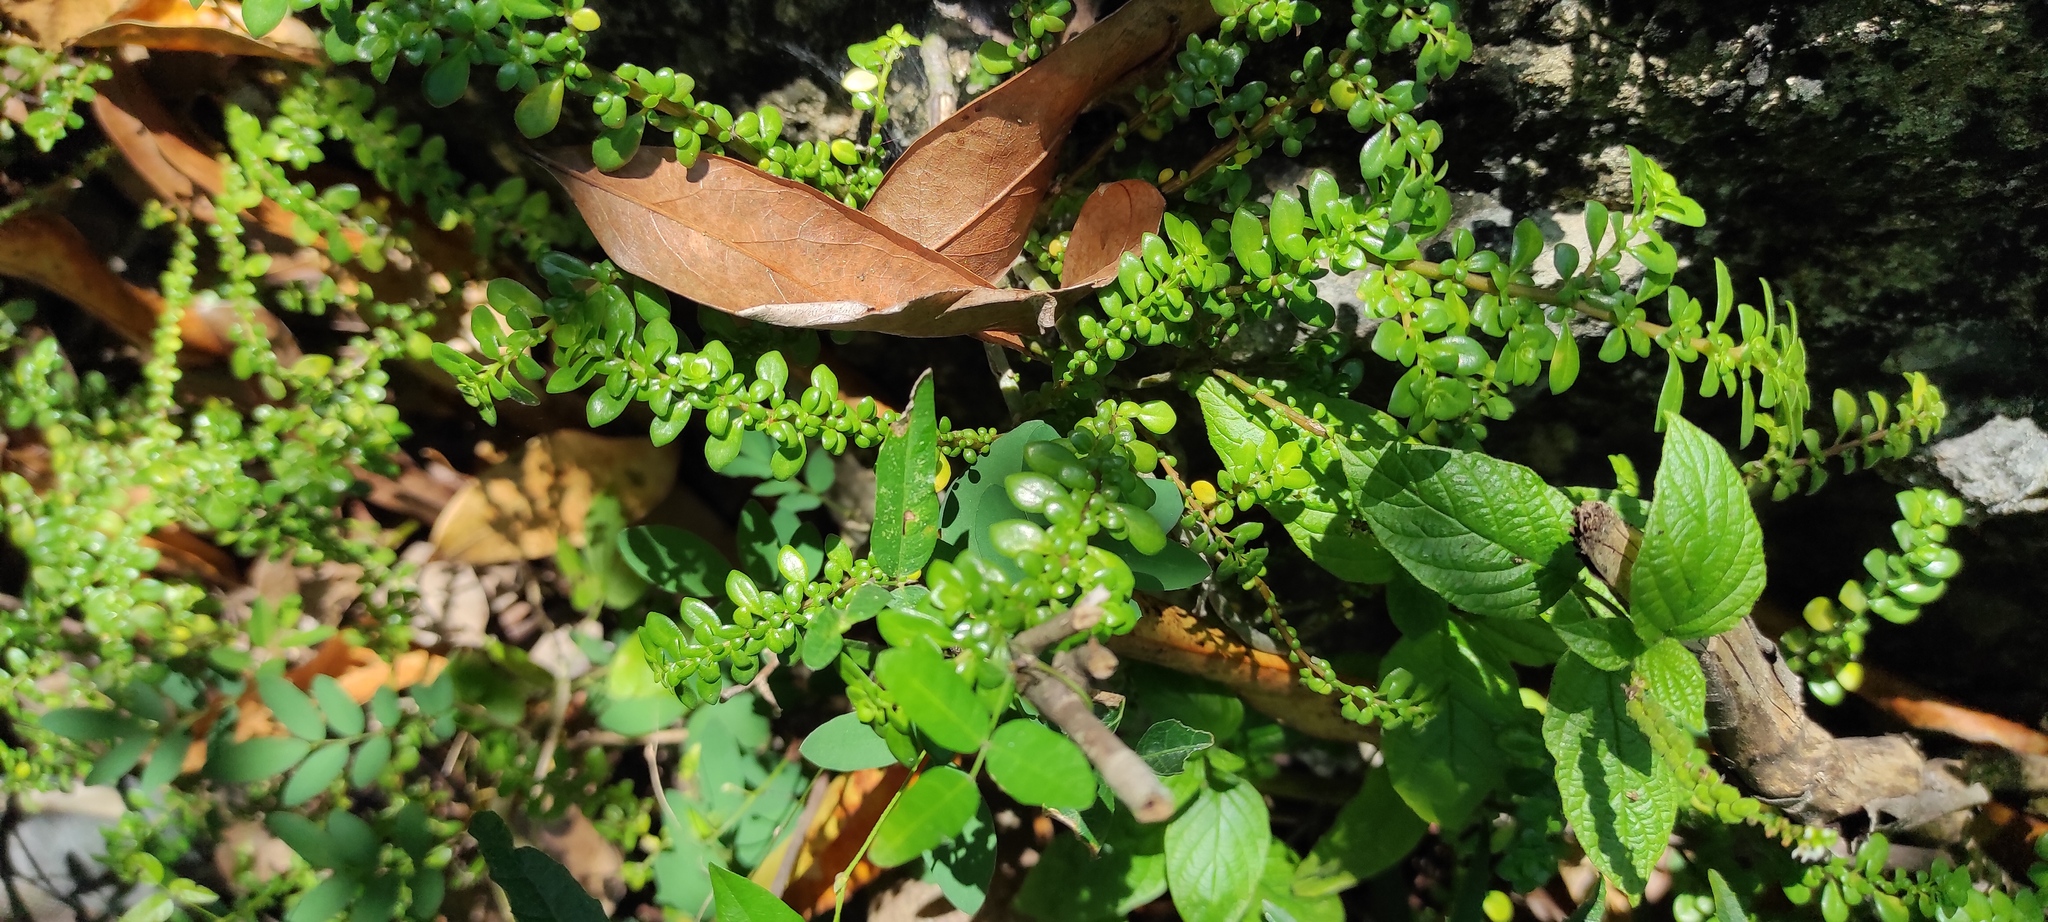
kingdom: Plantae
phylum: Tracheophyta
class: Magnoliopsida
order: Rosales
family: Urticaceae
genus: Pilea
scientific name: Pilea margarettae
